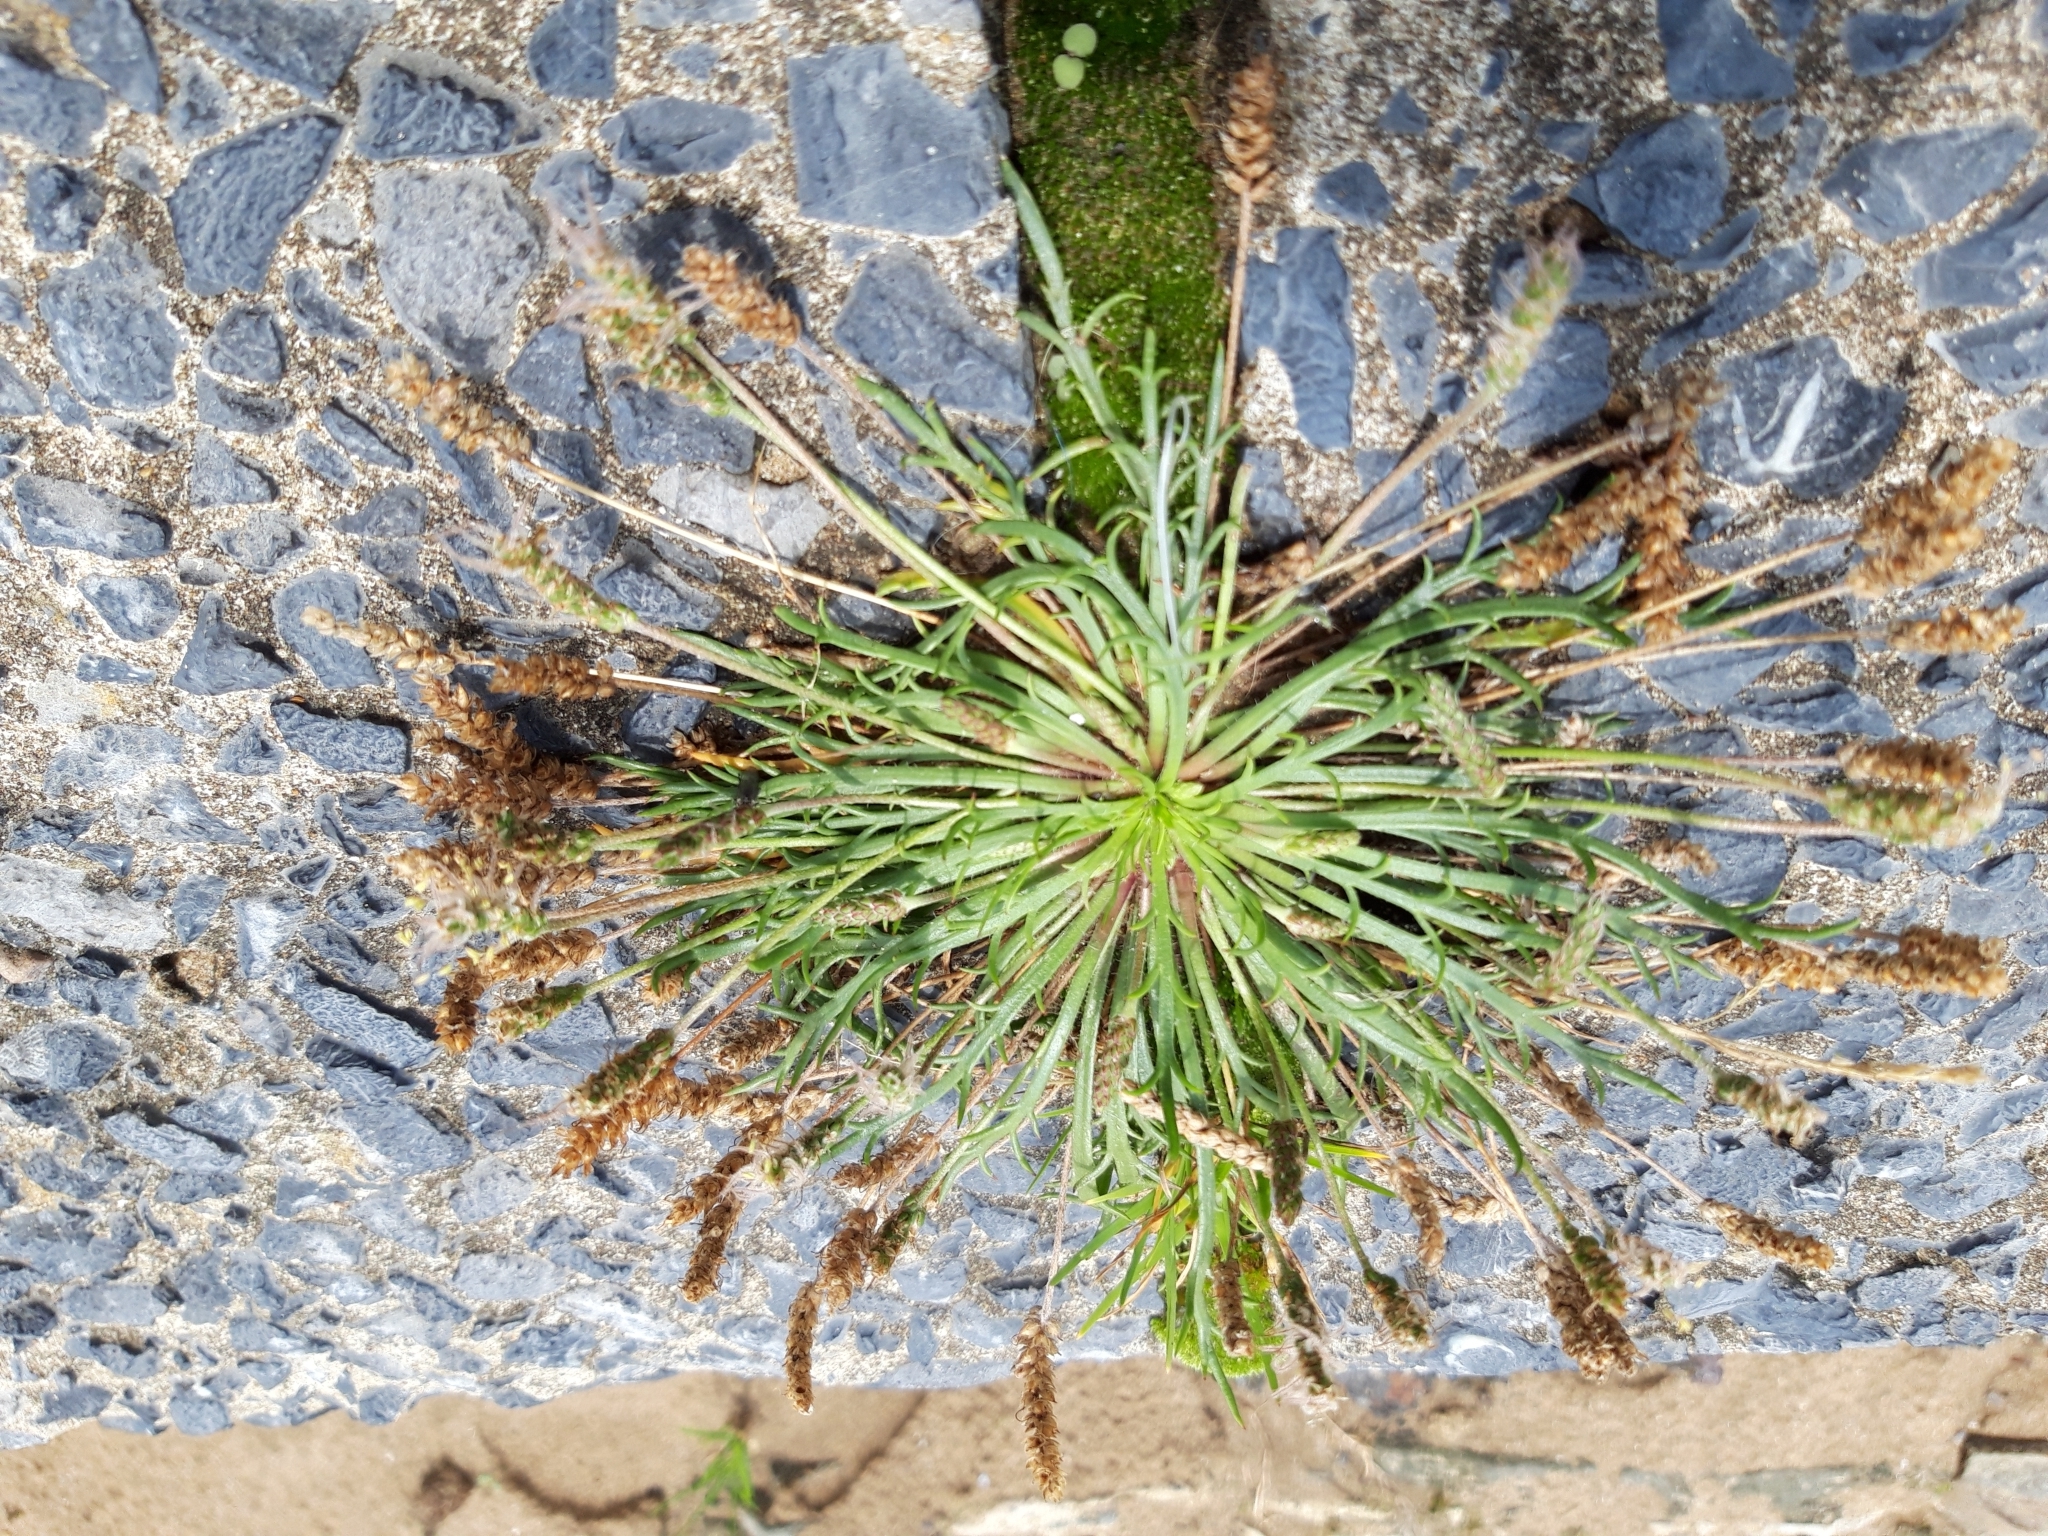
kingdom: Plantae
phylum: Tracheophyta
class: Magnoliopsida
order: Lamiales
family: Plantaginaceae
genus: Plantago
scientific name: Plantago coronopus
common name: Buck's-horn plantain
